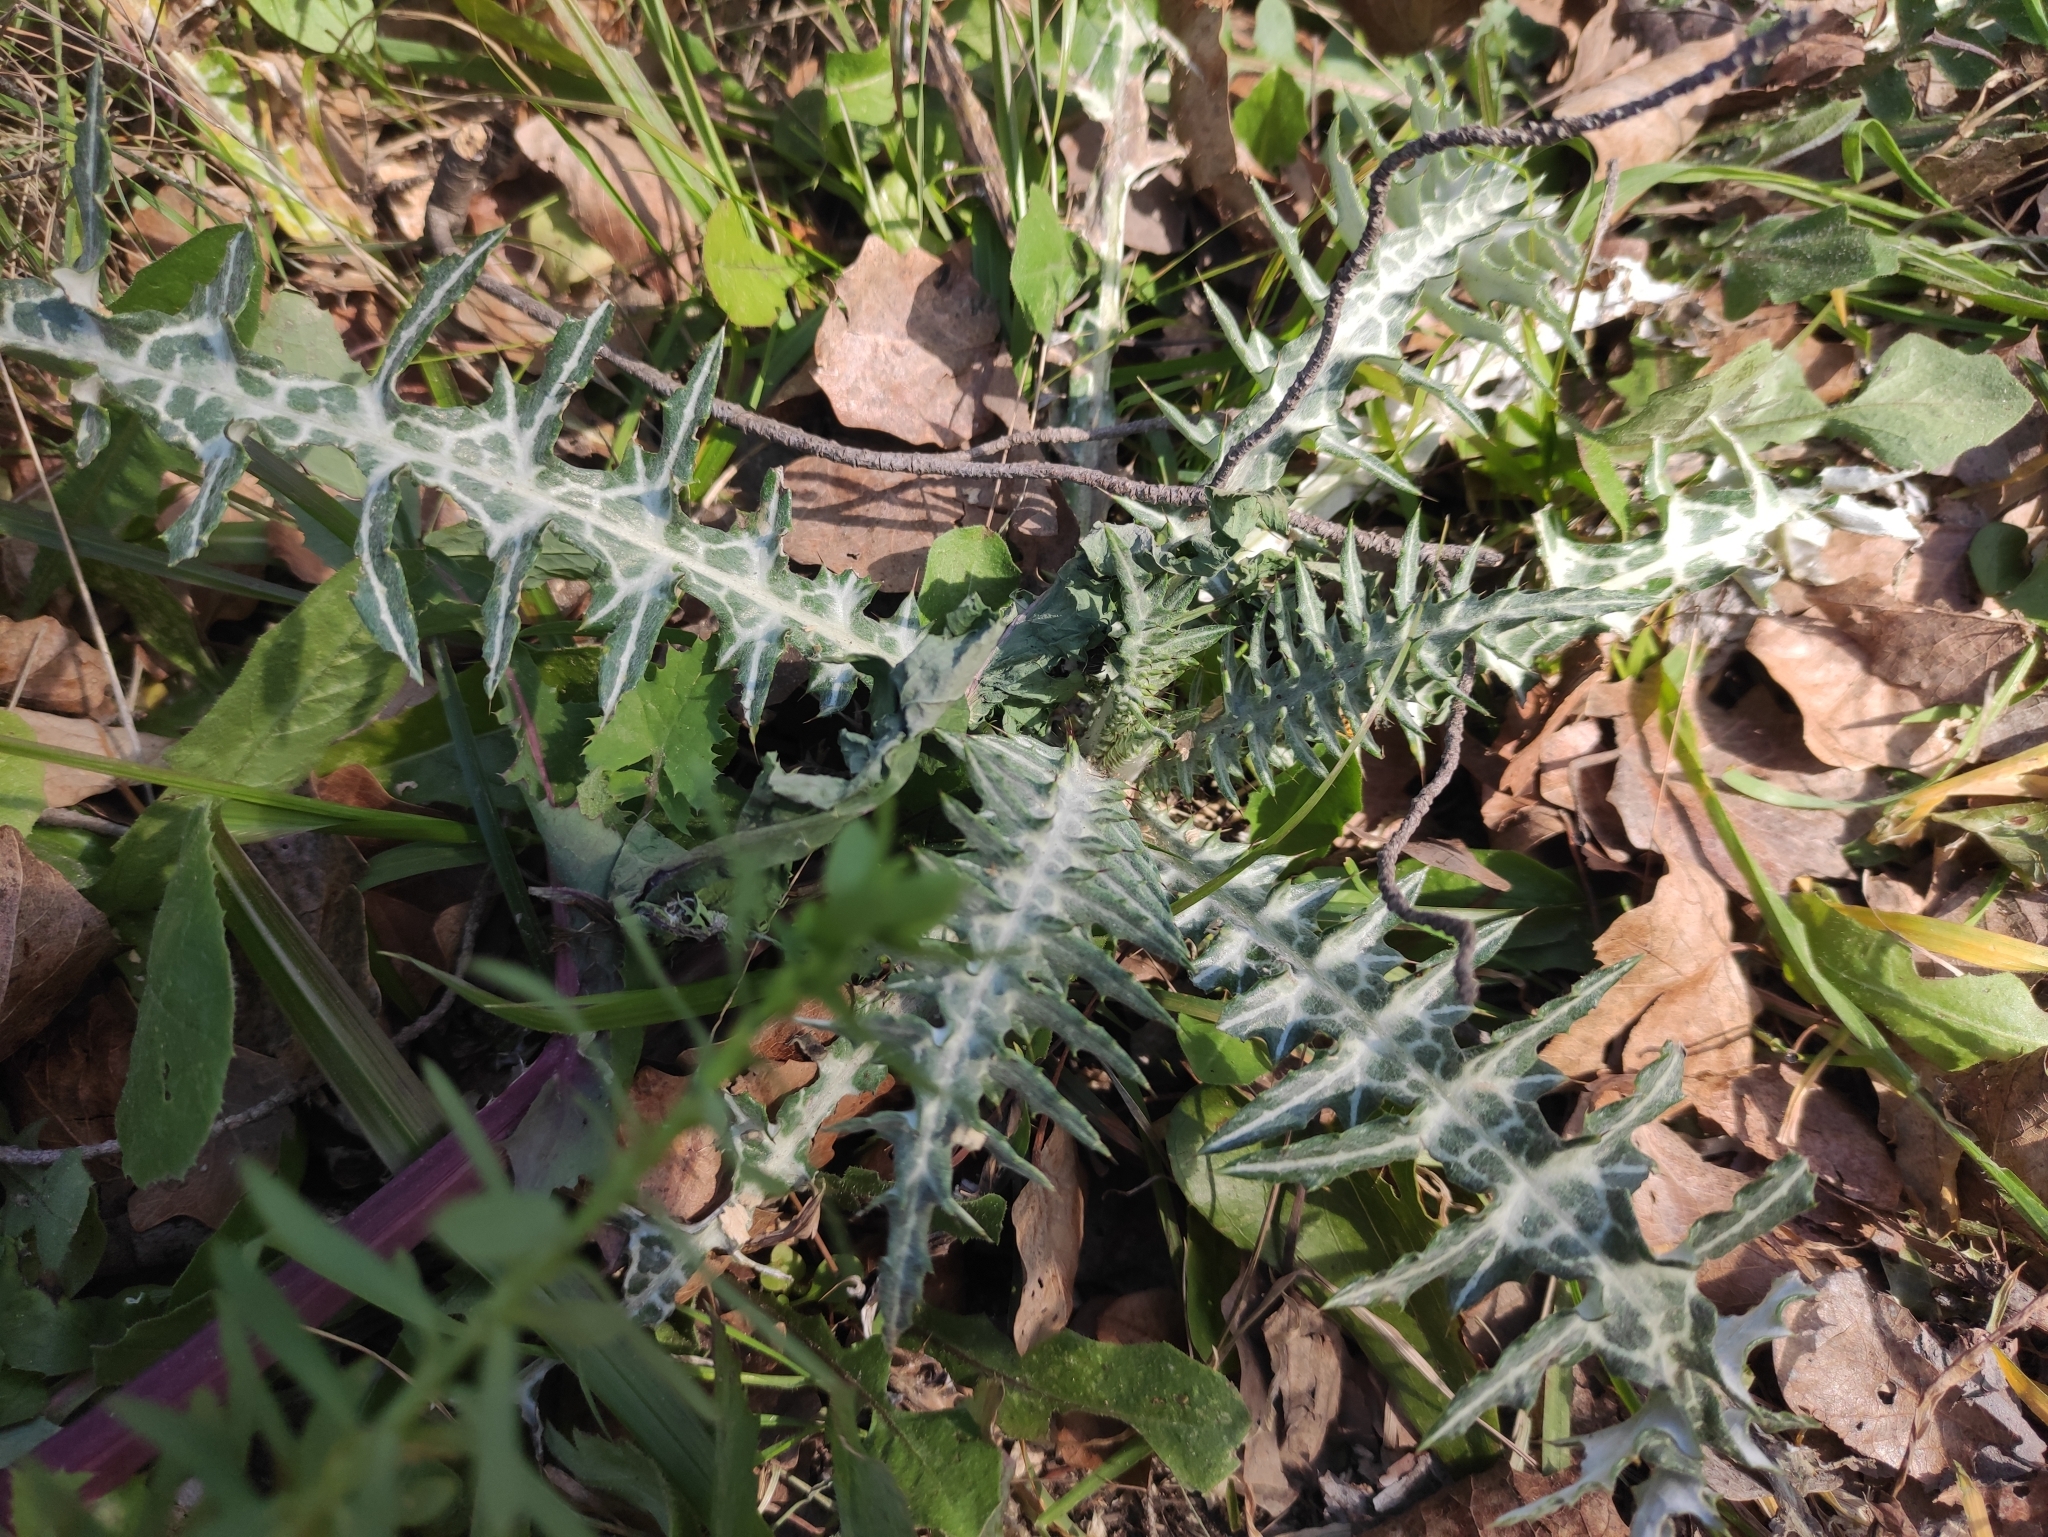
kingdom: Plantae
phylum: Tracheophyta
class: Magnoliopsida
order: Asterales
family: Asteraceae
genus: Galactites
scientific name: Galactites tomentosa
